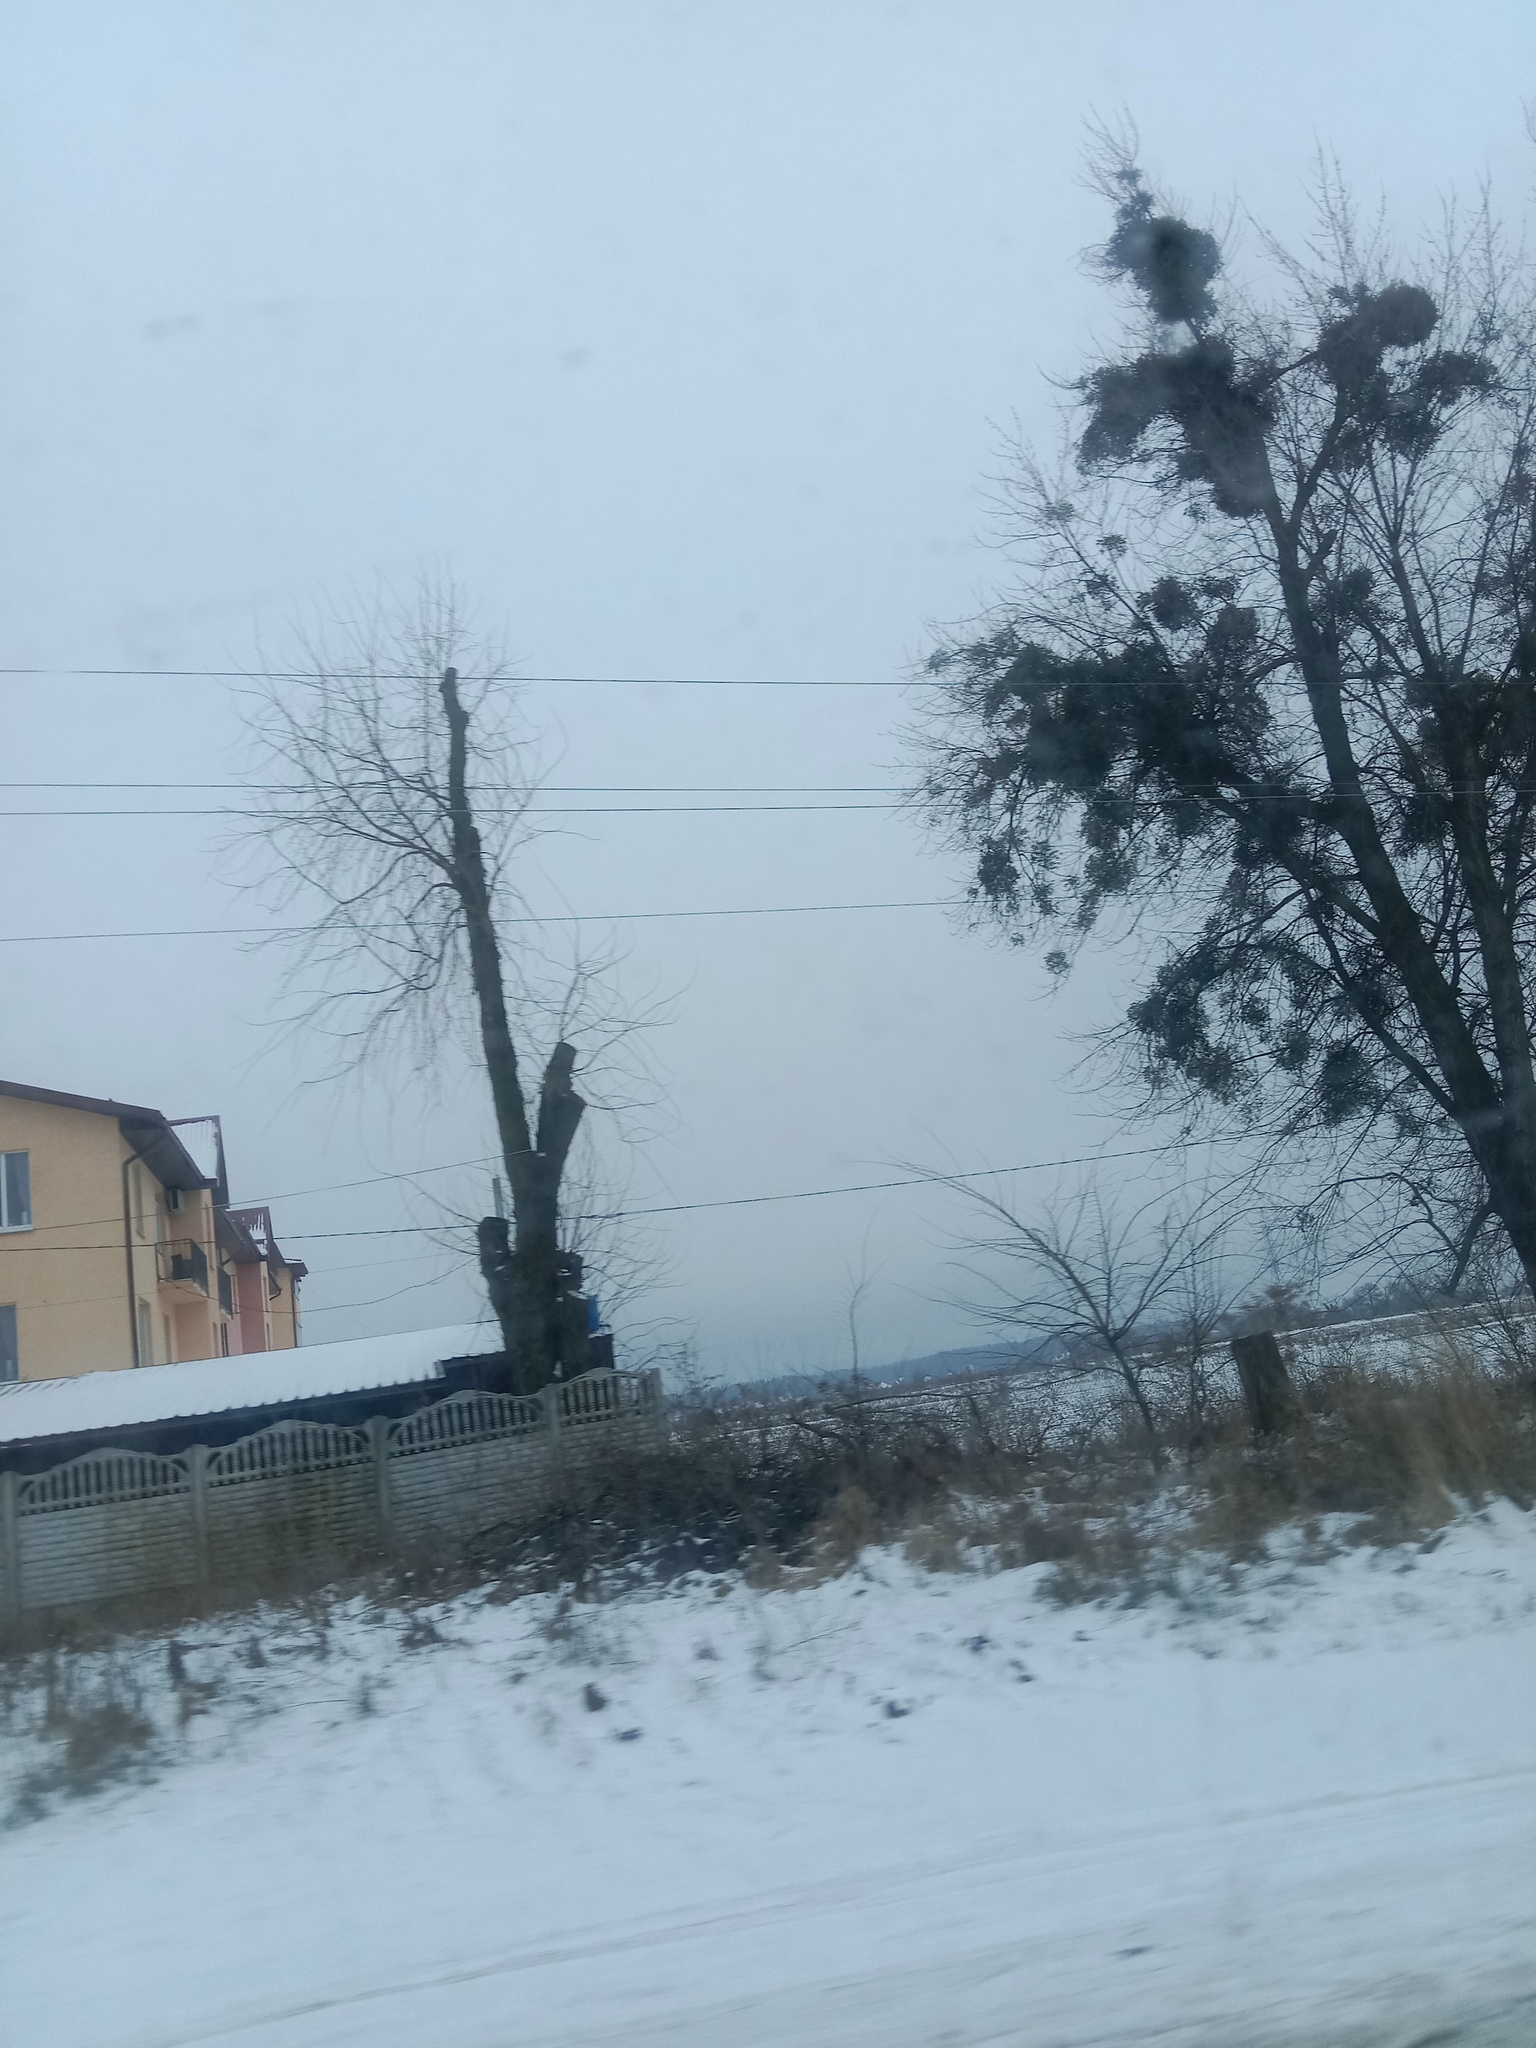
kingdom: Plantae
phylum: Tracheophyta
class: Magnoliopsida
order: Santalales
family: Viscaceae
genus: Viscum
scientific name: Viscum album
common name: Mistletoe
